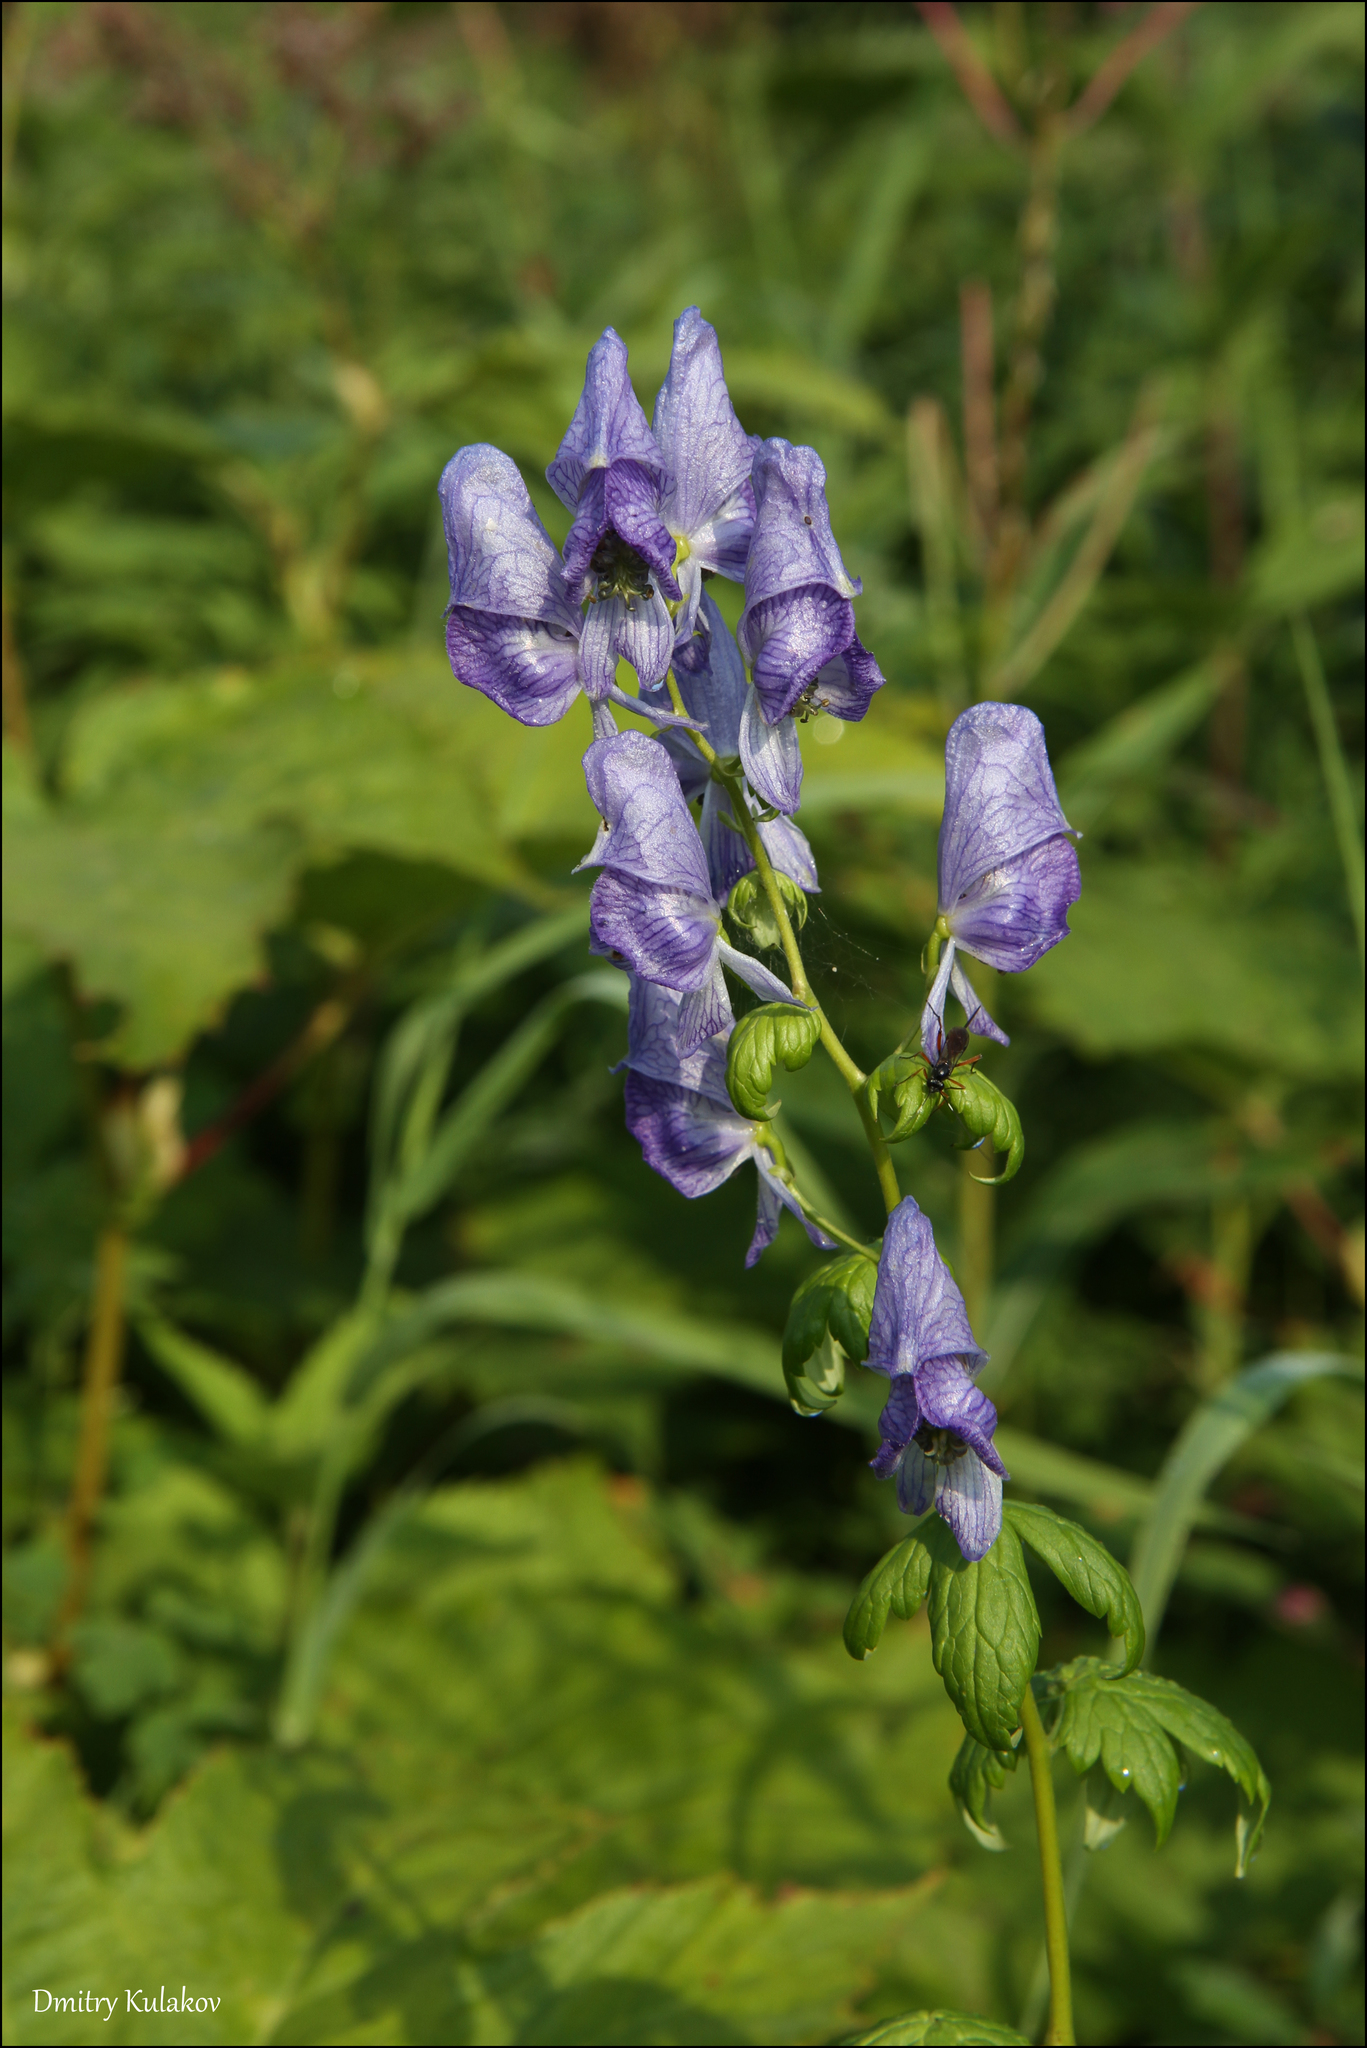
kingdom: Plantae
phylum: Tracheophyta
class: Magnoliopsida
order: Ranunculales
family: Ranunculaceae
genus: Aconitum
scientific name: Aconitum fischeri
